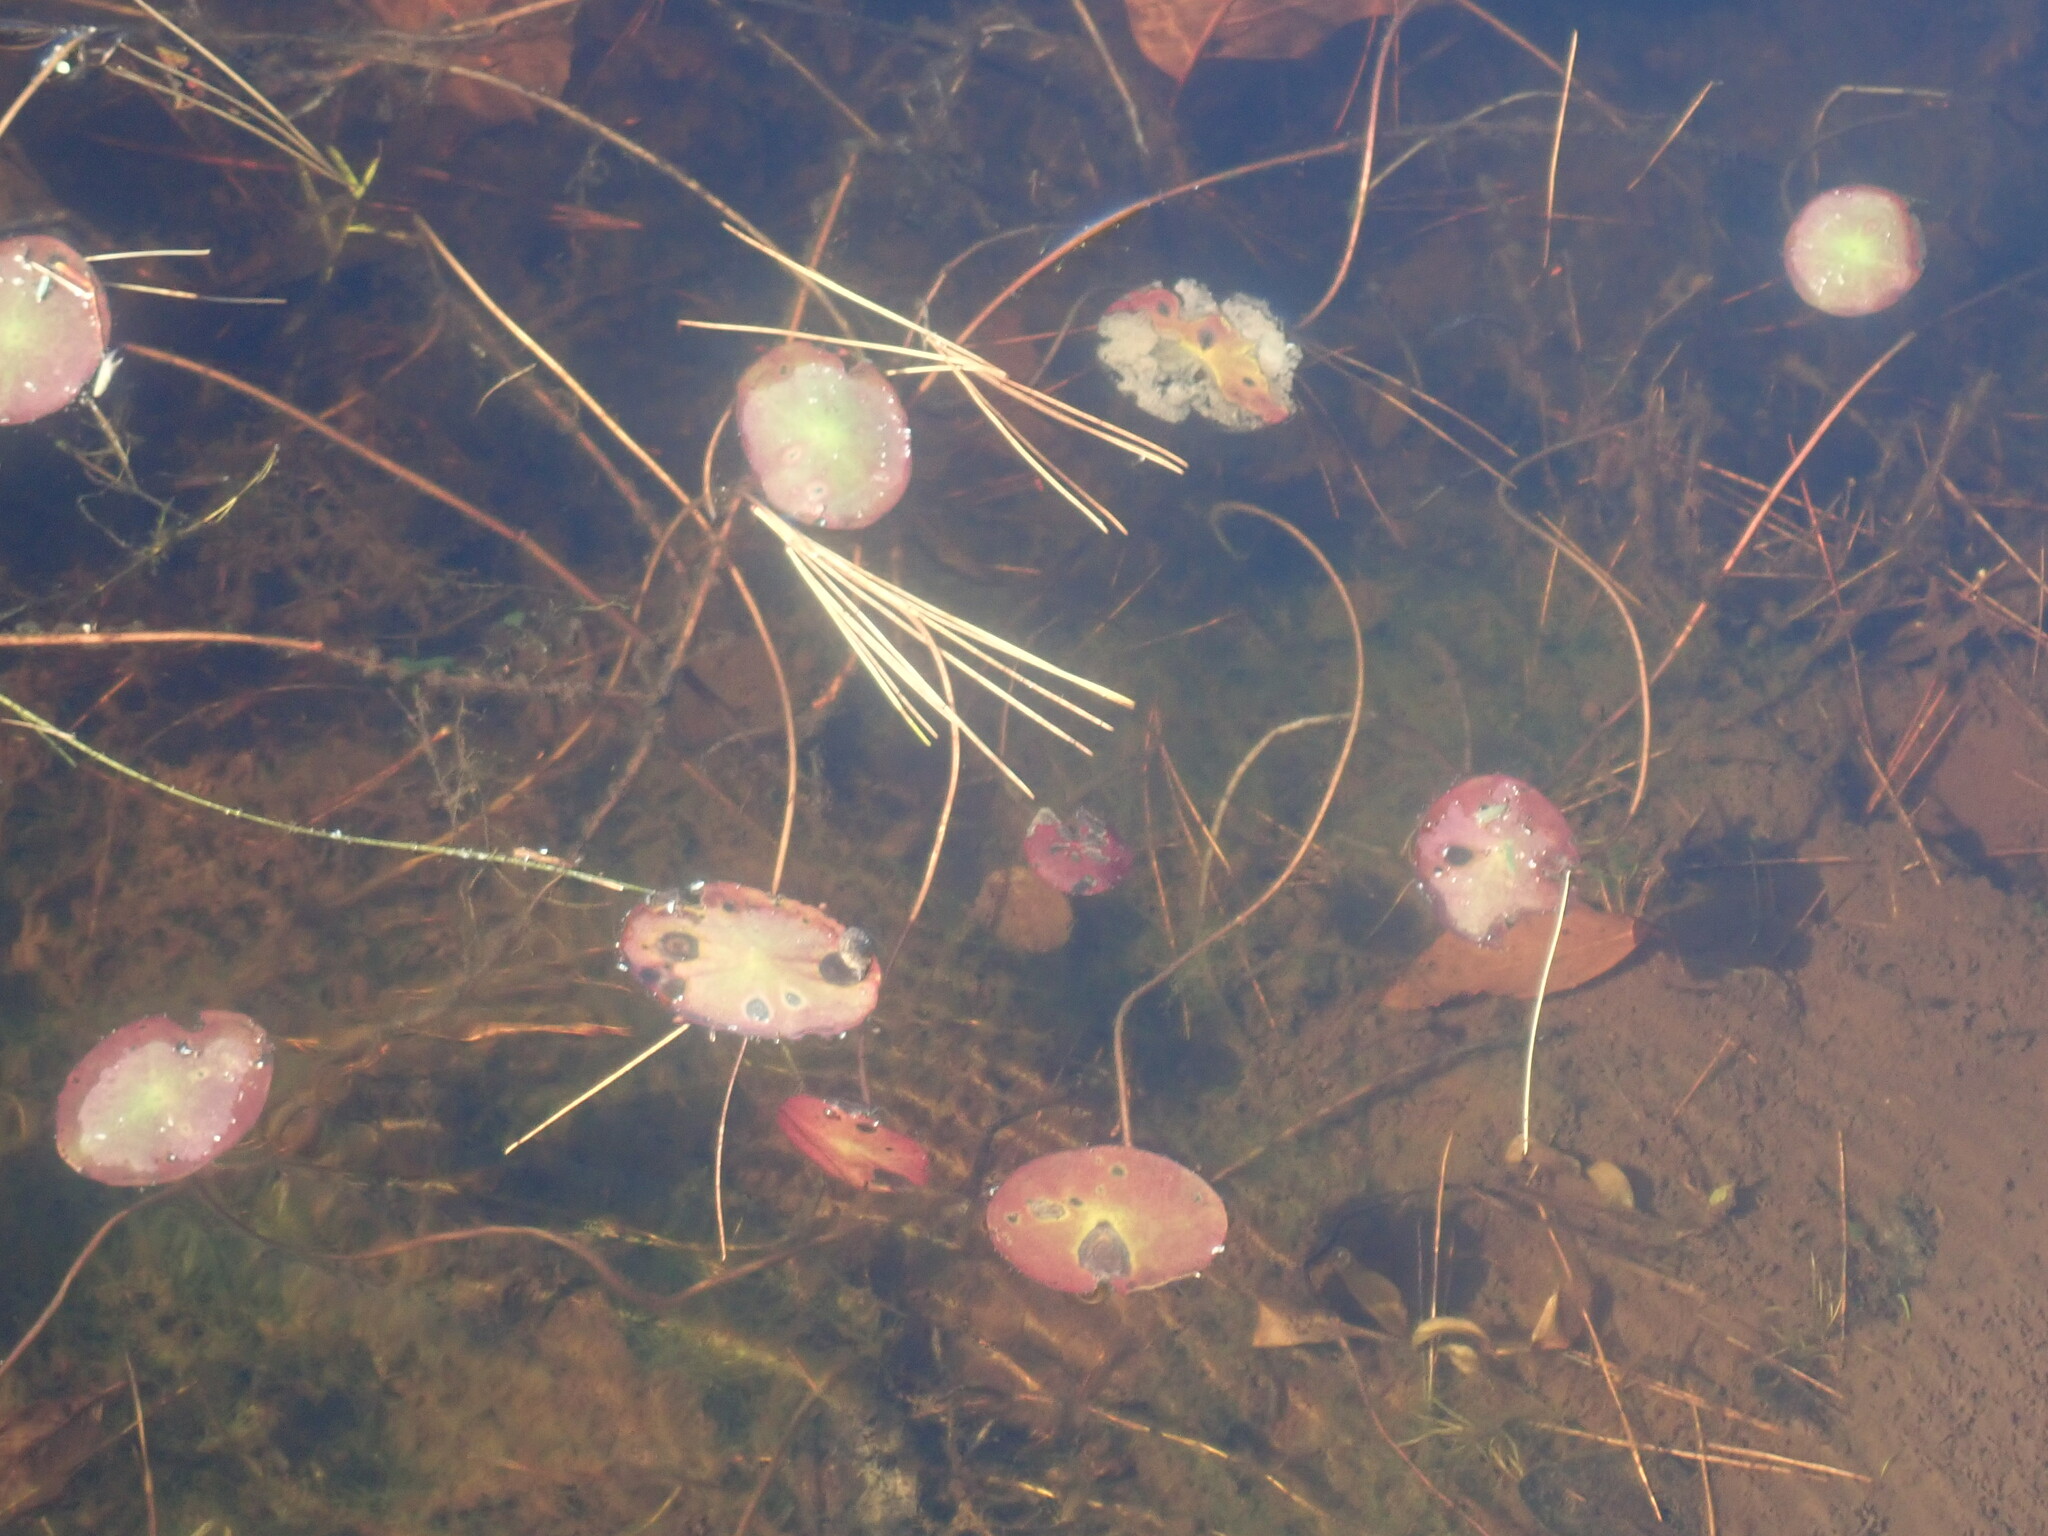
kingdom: Plantae
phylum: Tracheophyta
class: Magnoliopsida
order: Nymphaeales
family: Cabombaceae
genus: Brasenia
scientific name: Brasenia schreberi
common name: Water-shield
